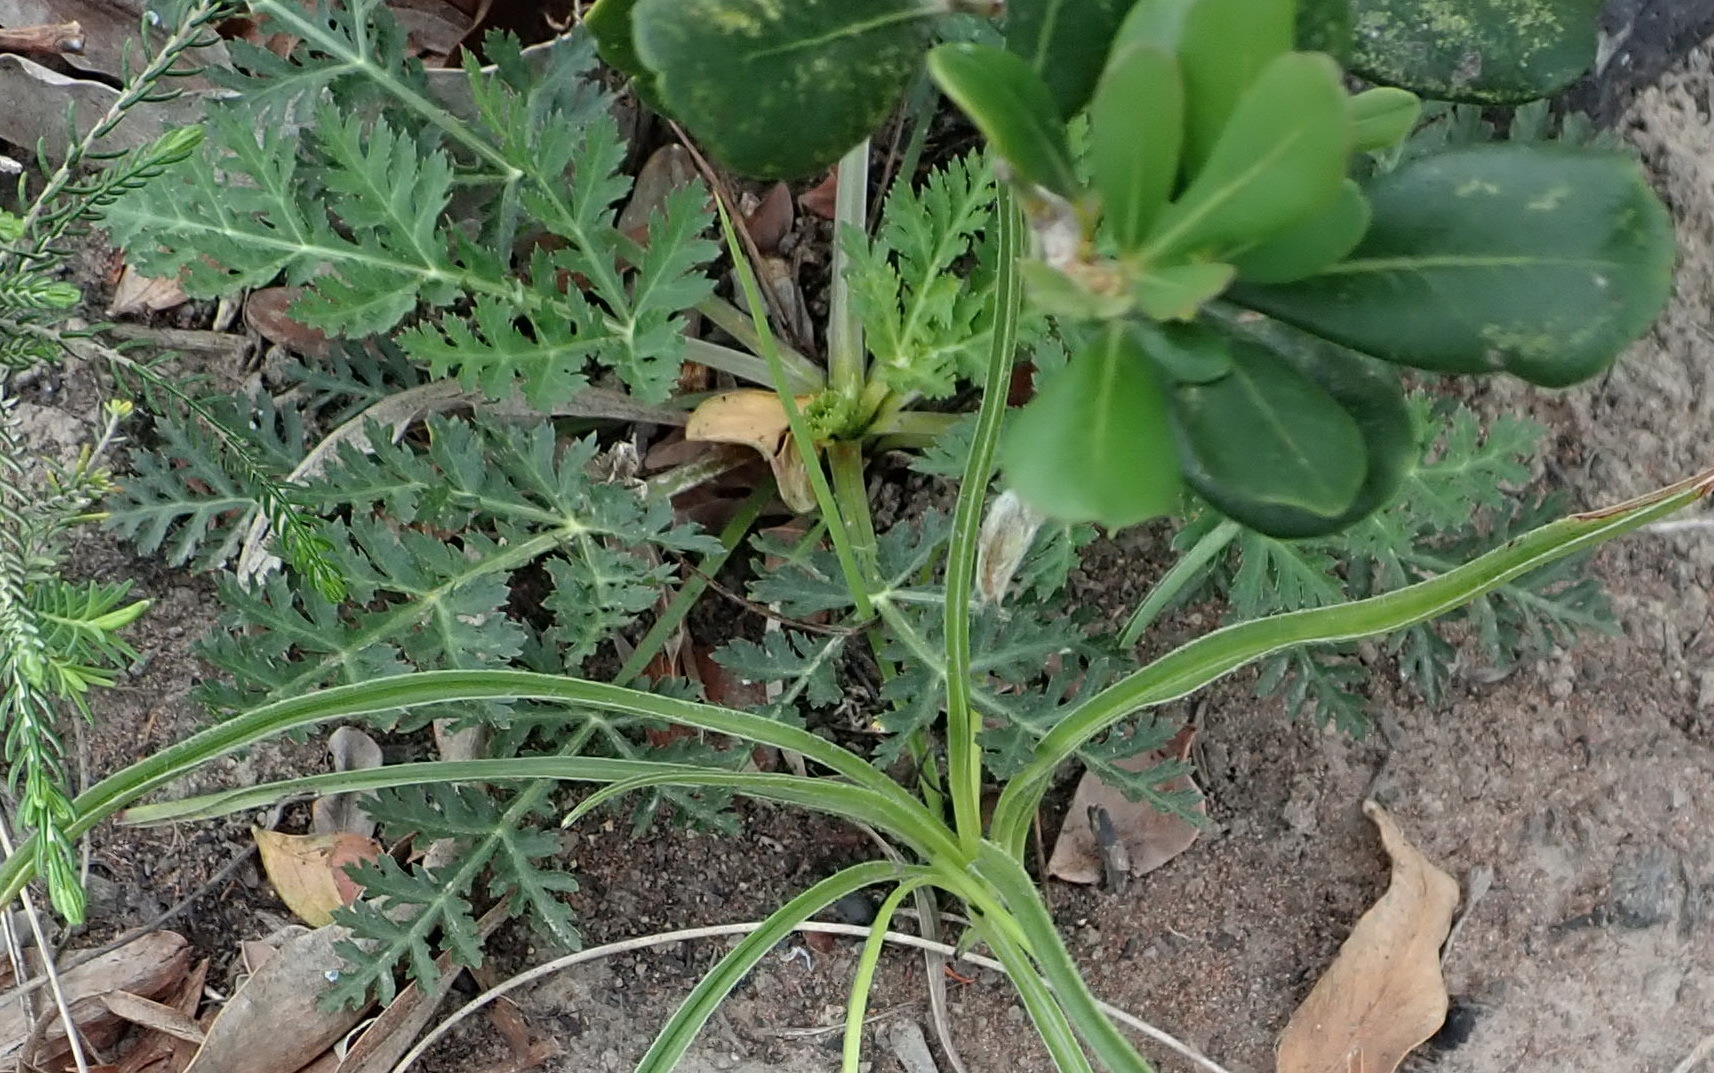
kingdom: Plantae
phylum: Tracheophyta
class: Magnoliopsida
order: Apiales
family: Apiaceae
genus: Lichtensteinia
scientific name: Lichtensteinia interrupta
